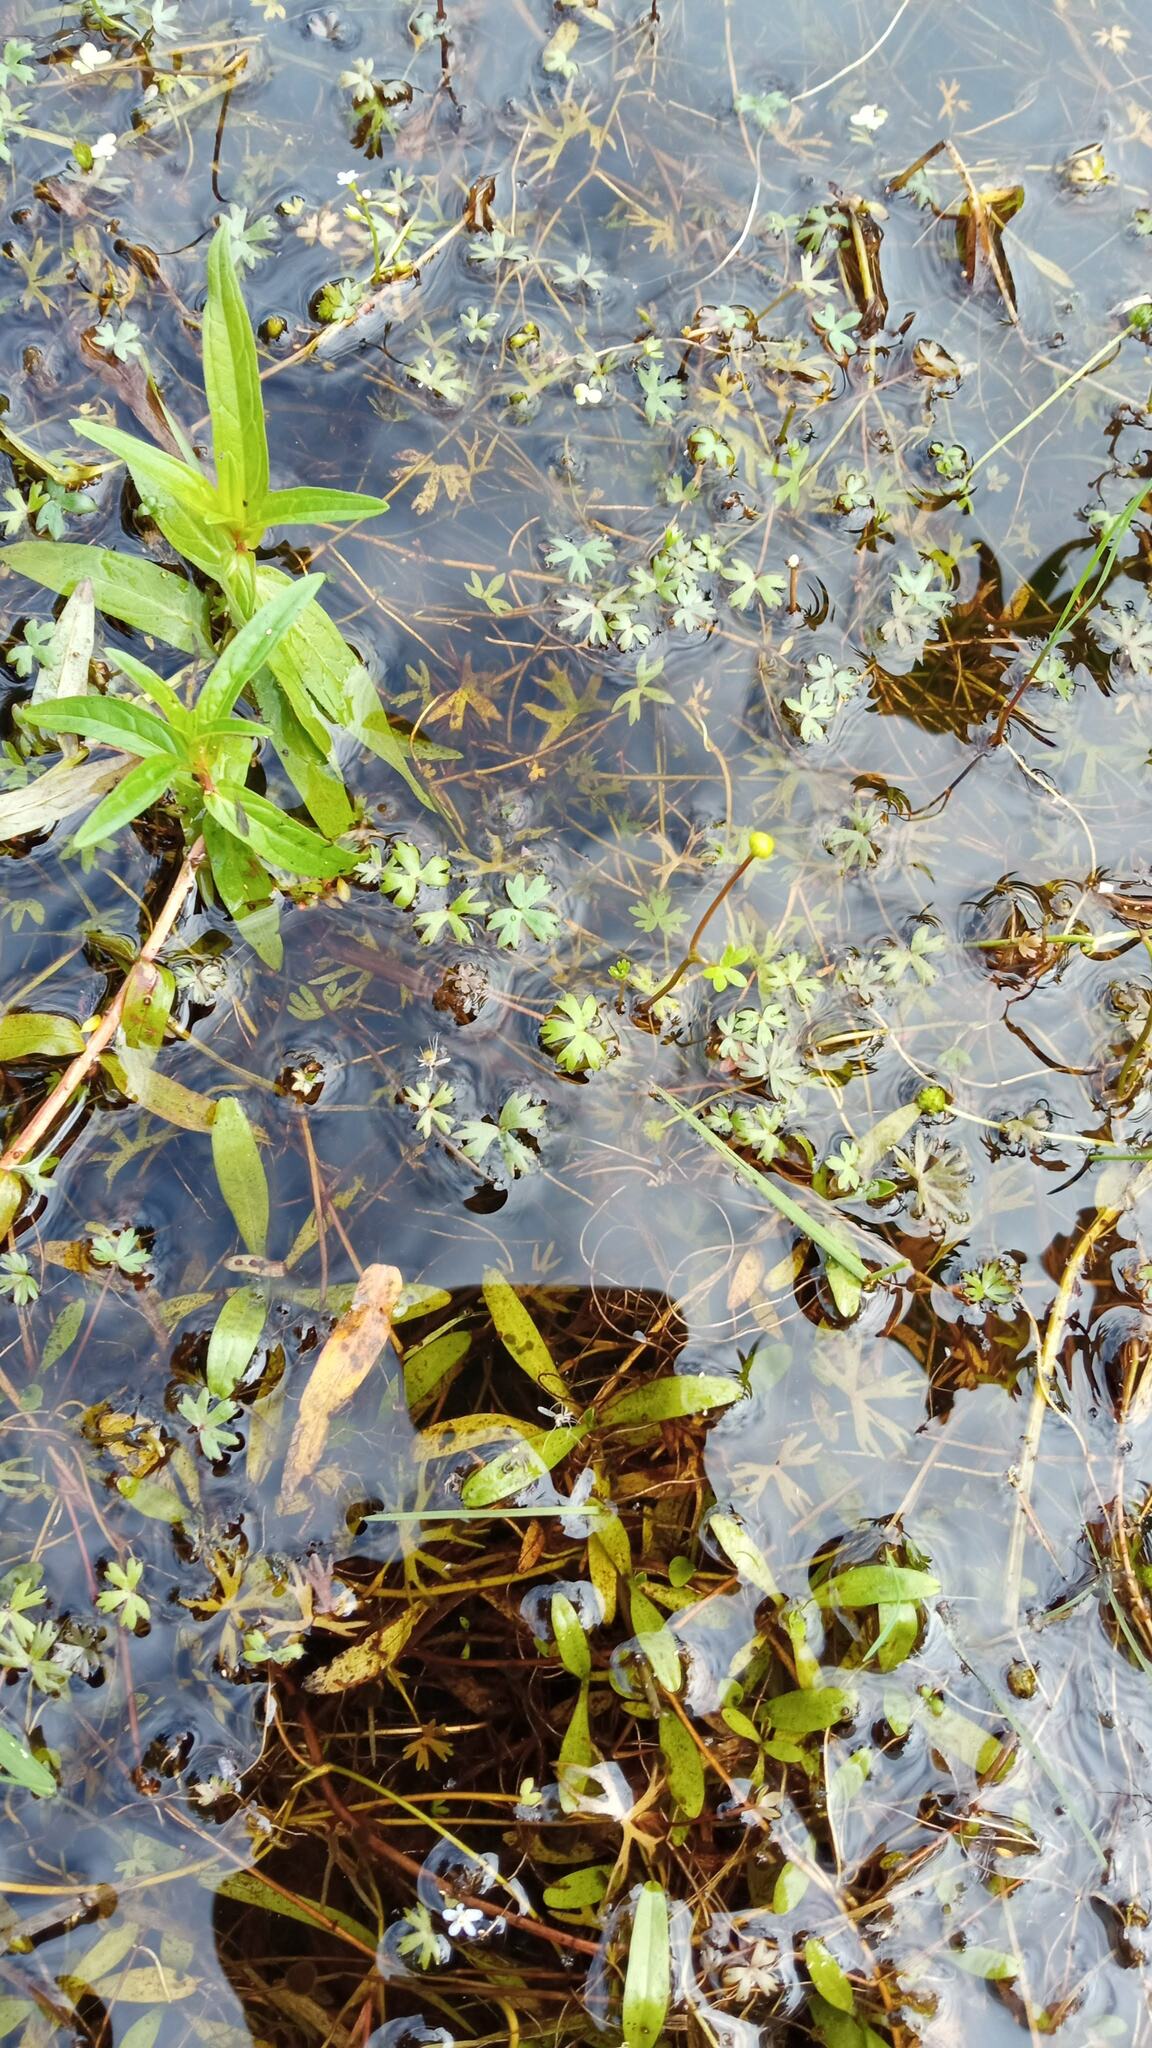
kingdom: Plantae
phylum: Tracheophyta
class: Magnoliopsida
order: Ranunculales
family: Ranunculaceae
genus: Ranunculus
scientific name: Ranunculus gmelinii
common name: Gmelin's buttercup
